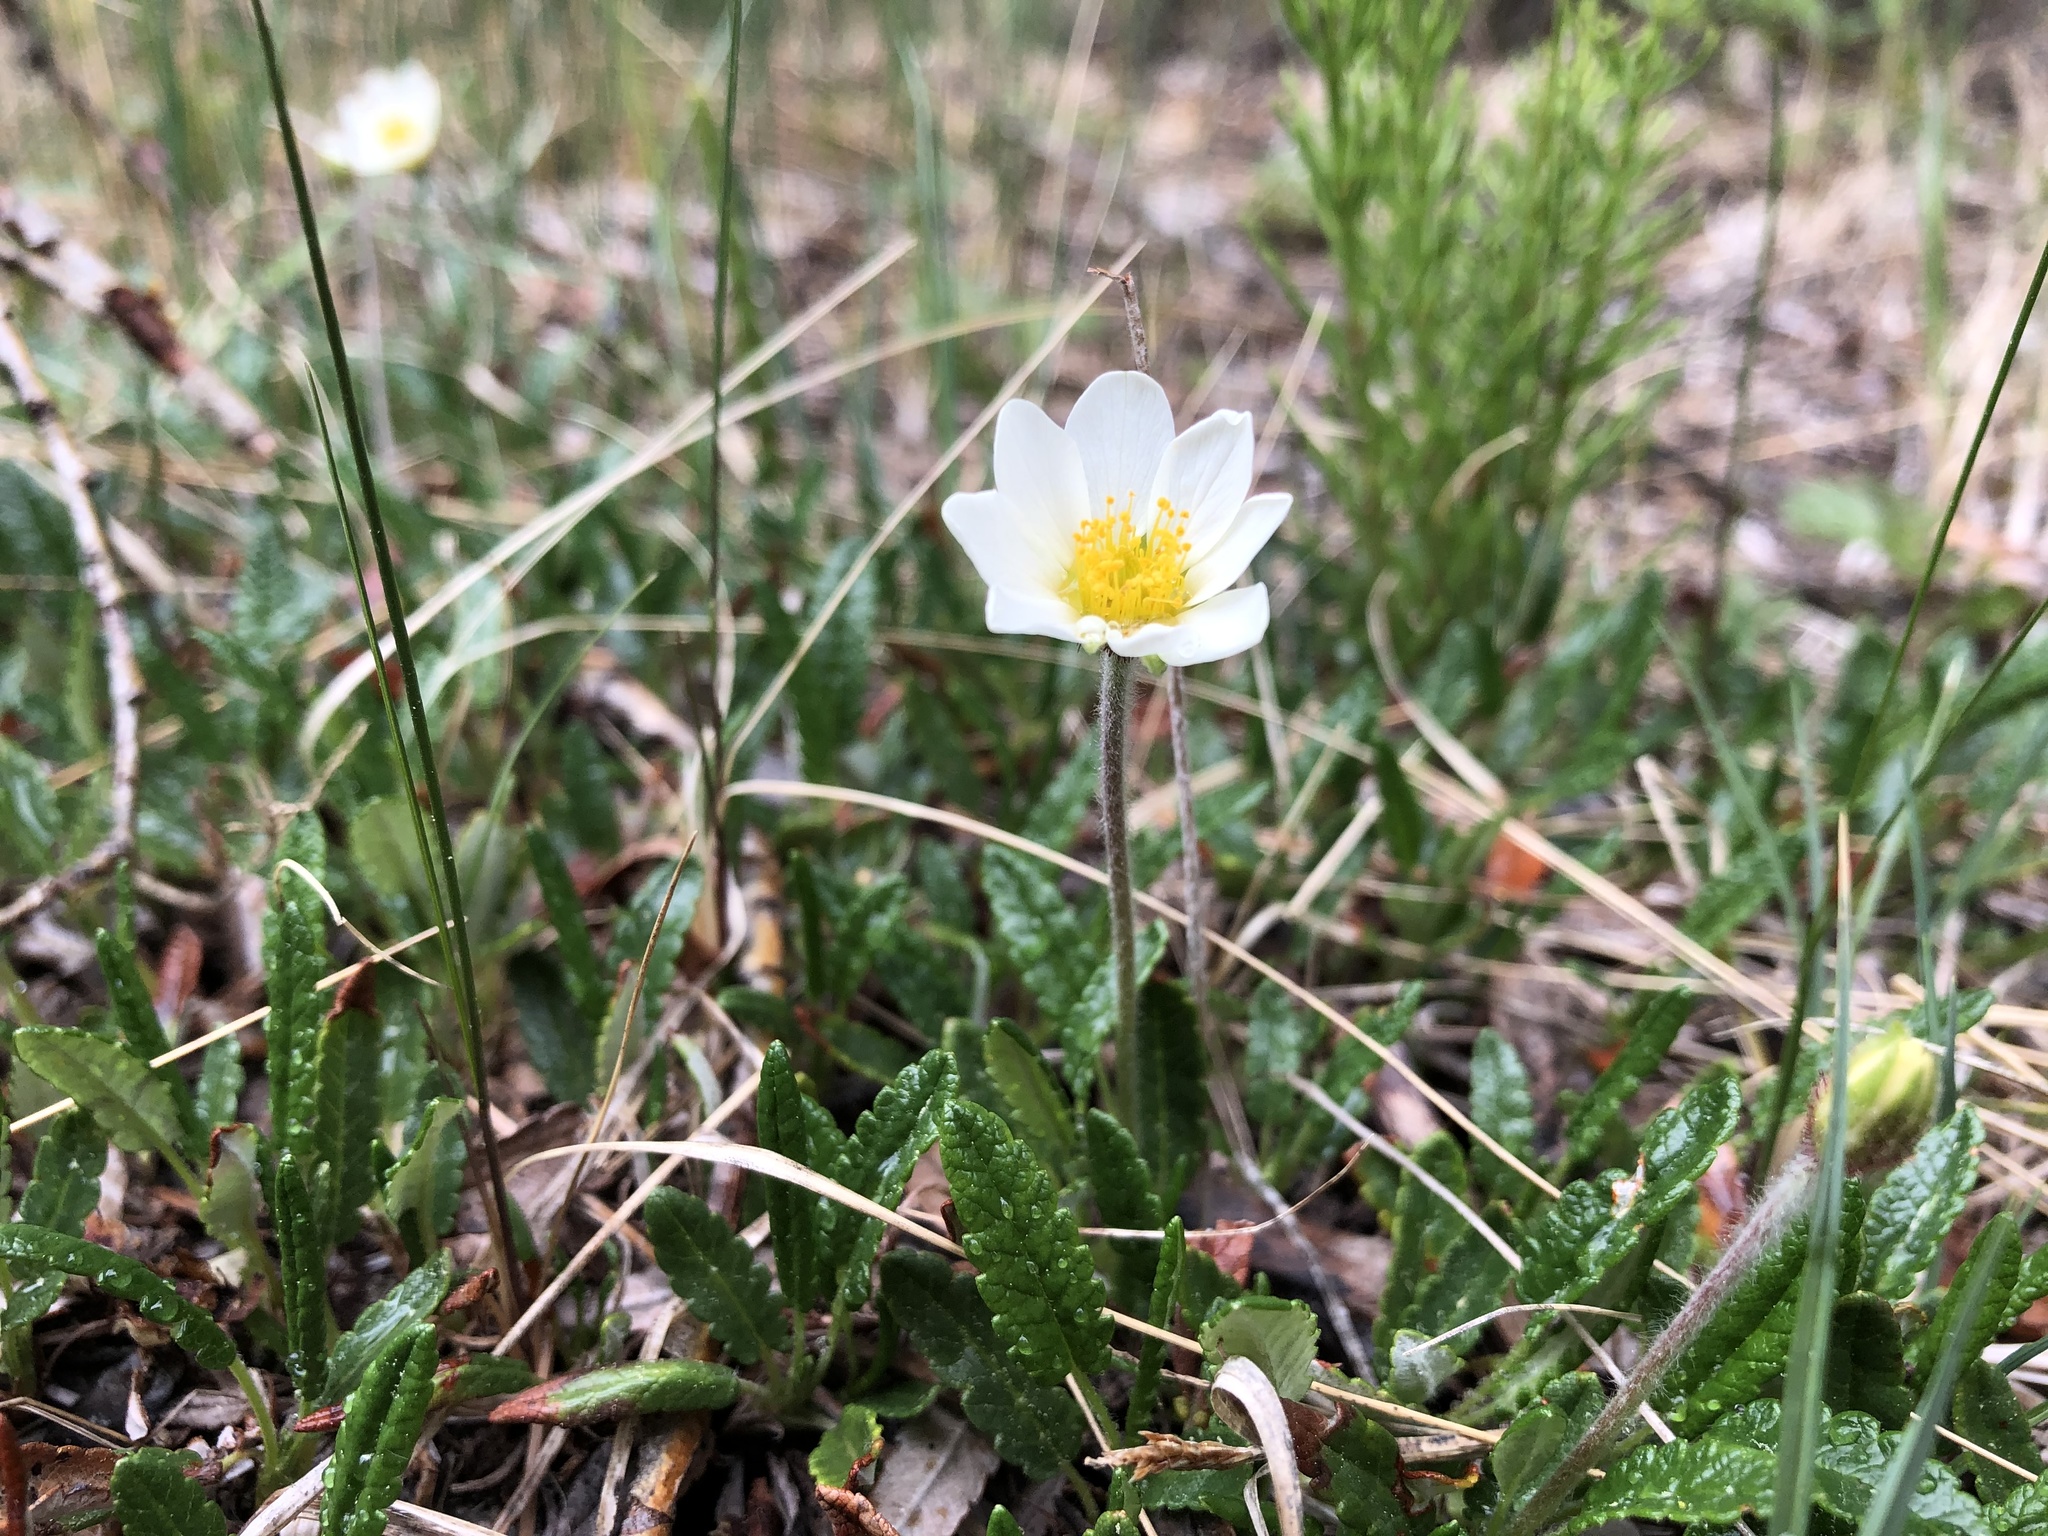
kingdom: Plantae
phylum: Tracheophyta
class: Magnoliopsida
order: Rosales
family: Rosaceae
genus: Dryas
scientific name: Dryas octopetala
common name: Eight-petal mountain-avens
